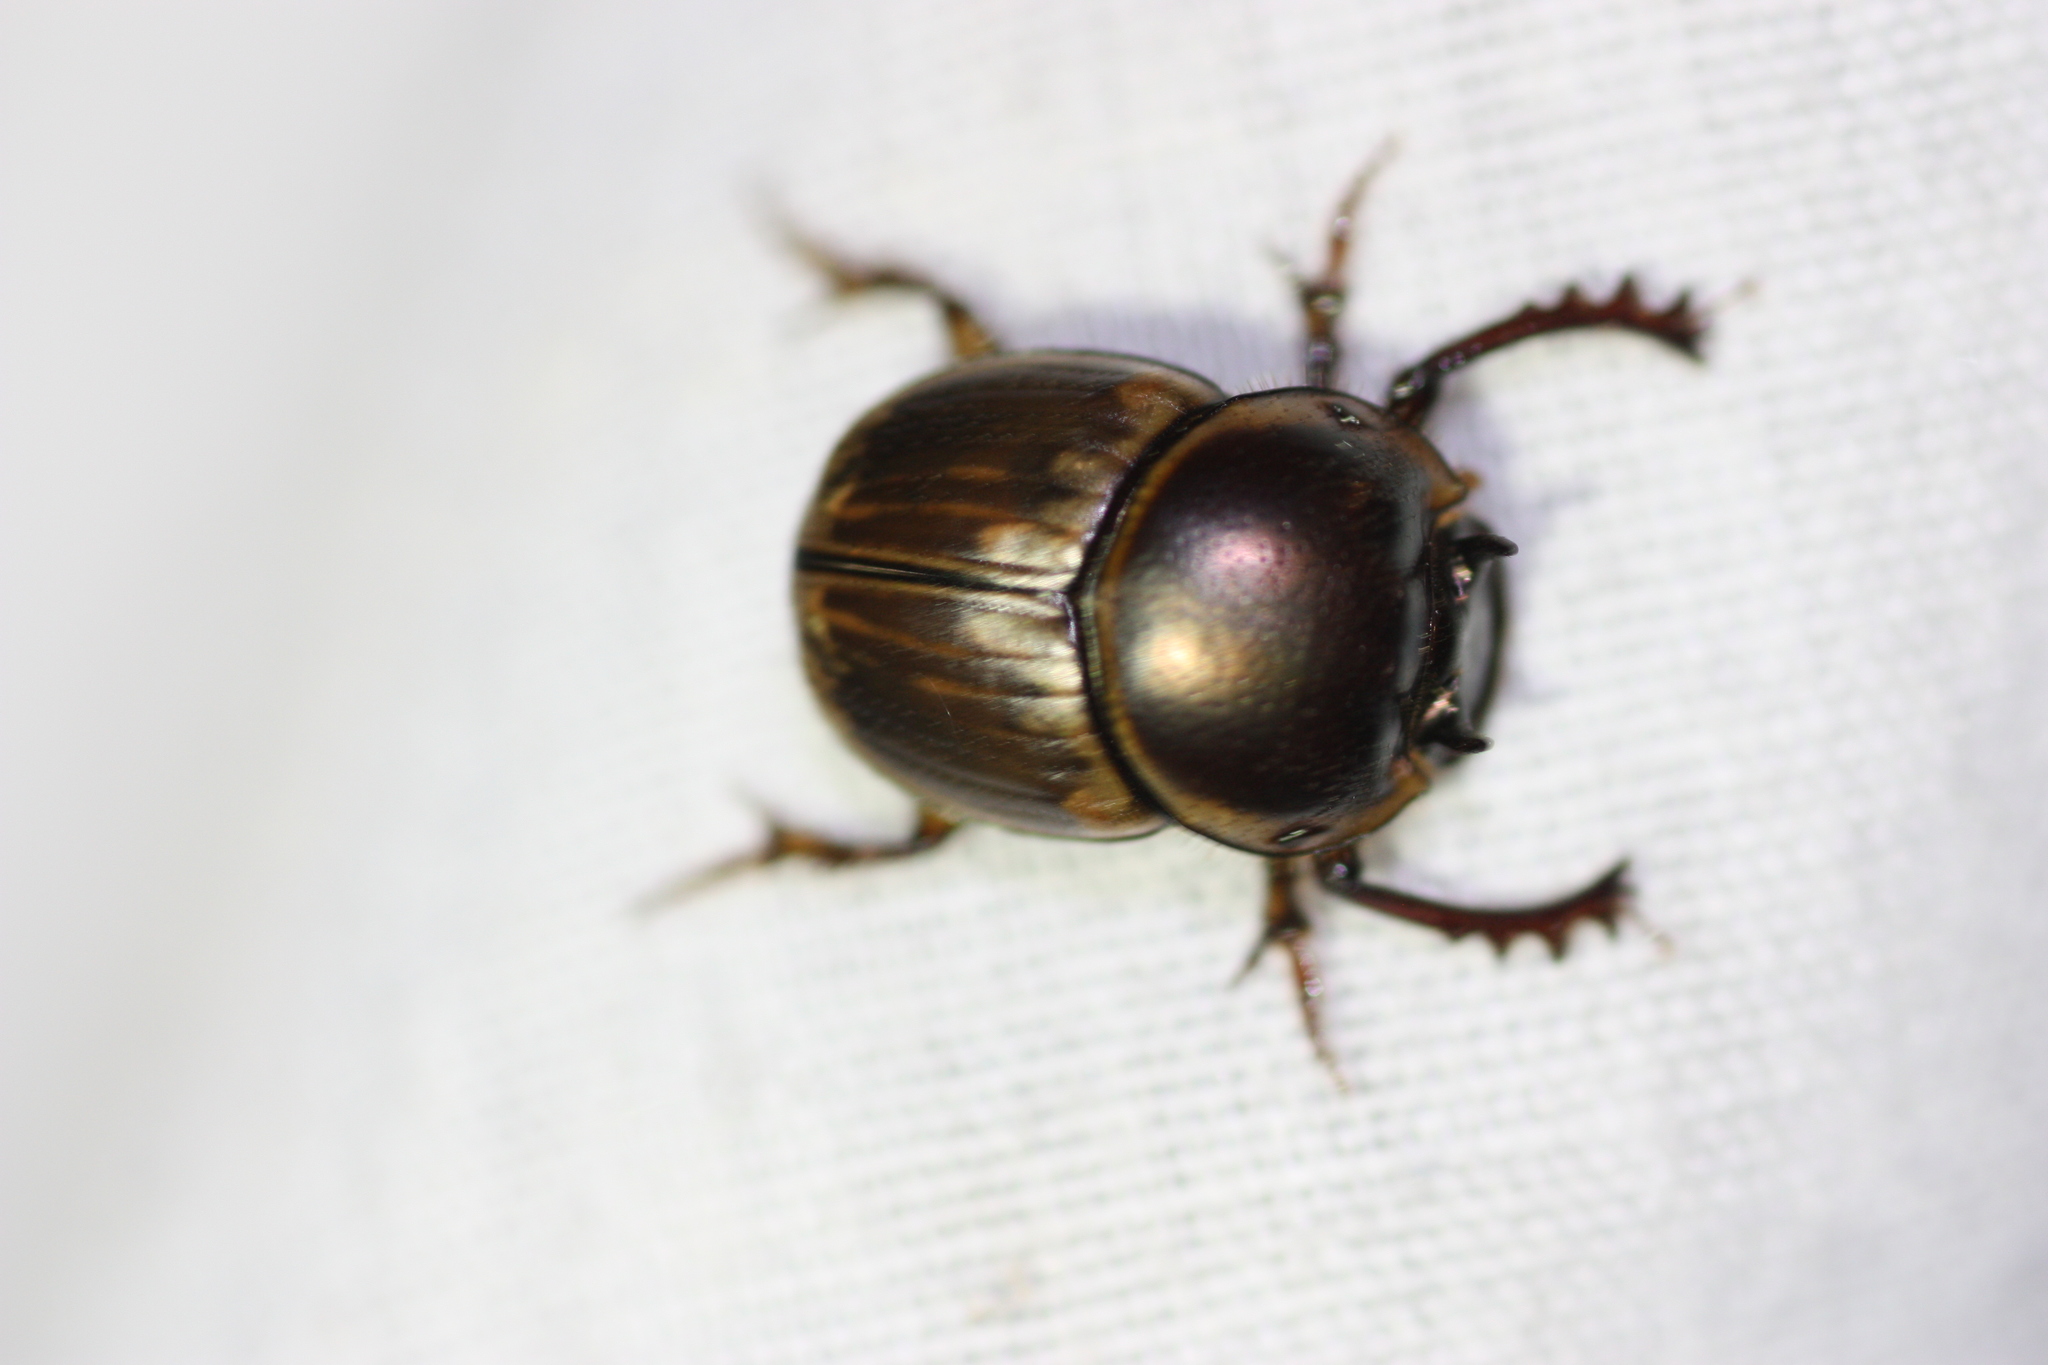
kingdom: Animalia
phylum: Arthropoda
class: Insecta
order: Coleoptera
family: Scarabaeidae
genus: Digitonthophagus
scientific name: Digitonthophagus gazella
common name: Brown dung beetle
